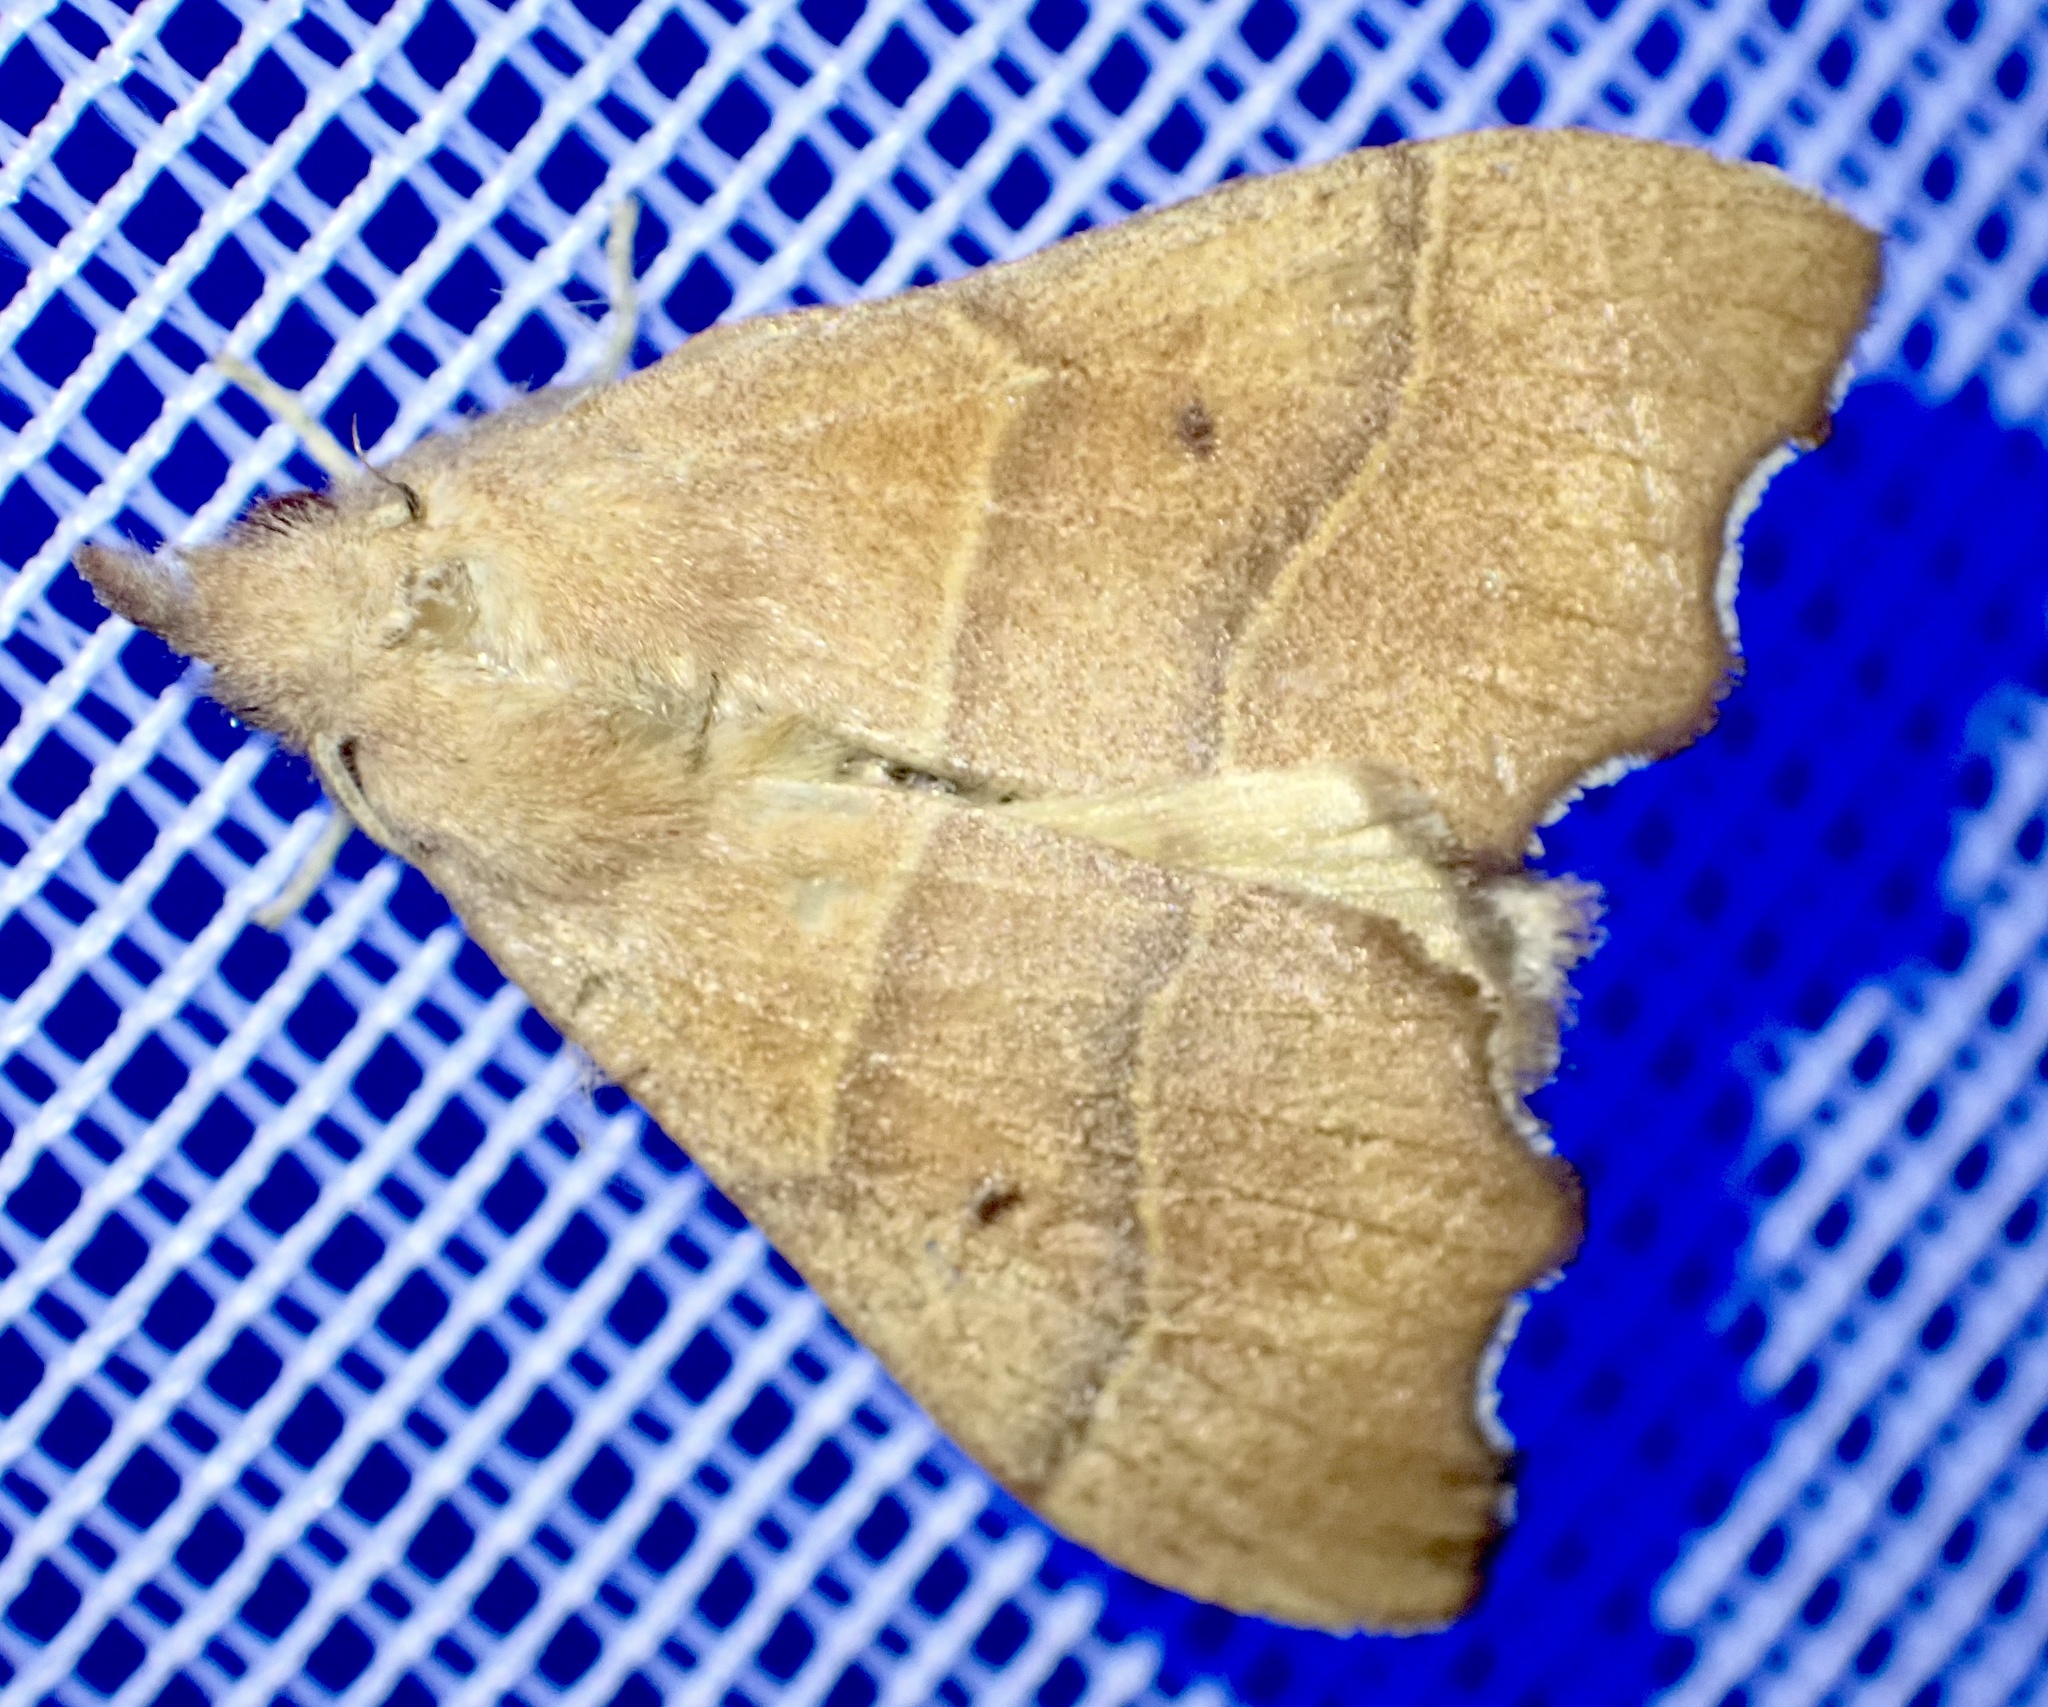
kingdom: Animalia
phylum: Arthropoda
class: Insecta
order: Lepidoptera
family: Lasiocampidae
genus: Leipoxais
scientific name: Leipoxais hapsimachus
